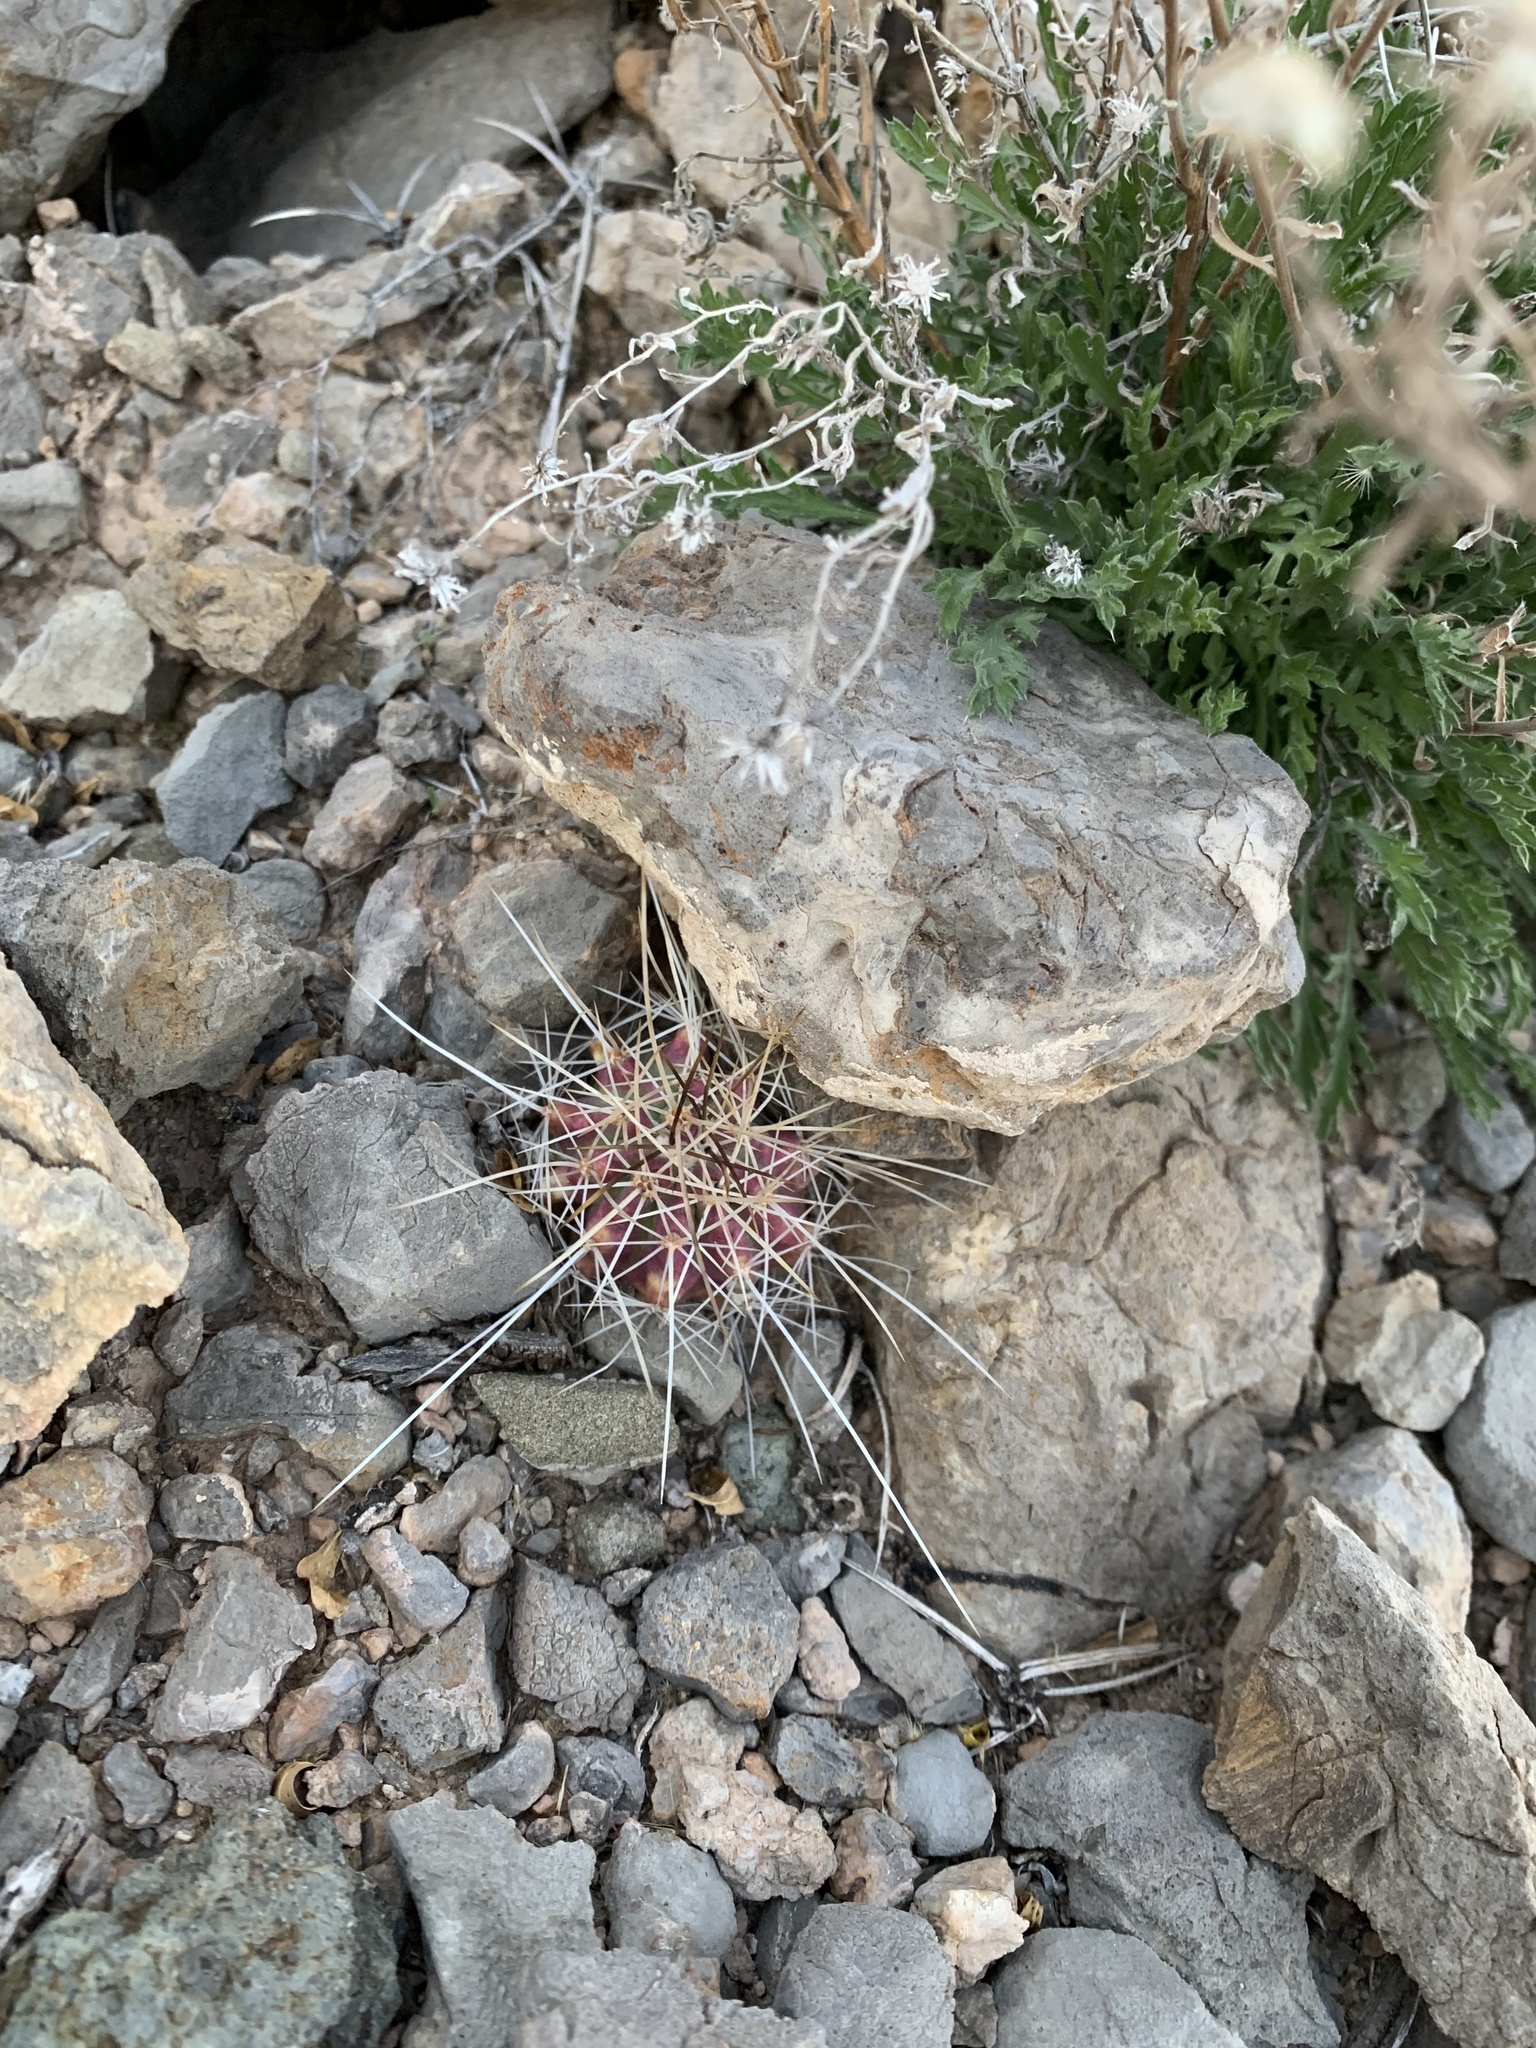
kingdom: Plantae
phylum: Tracheophyta
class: Magnoliopsida
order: Caryophyllales
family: Cactaceae
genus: Echinocereus
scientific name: Echinocereus stramineus
